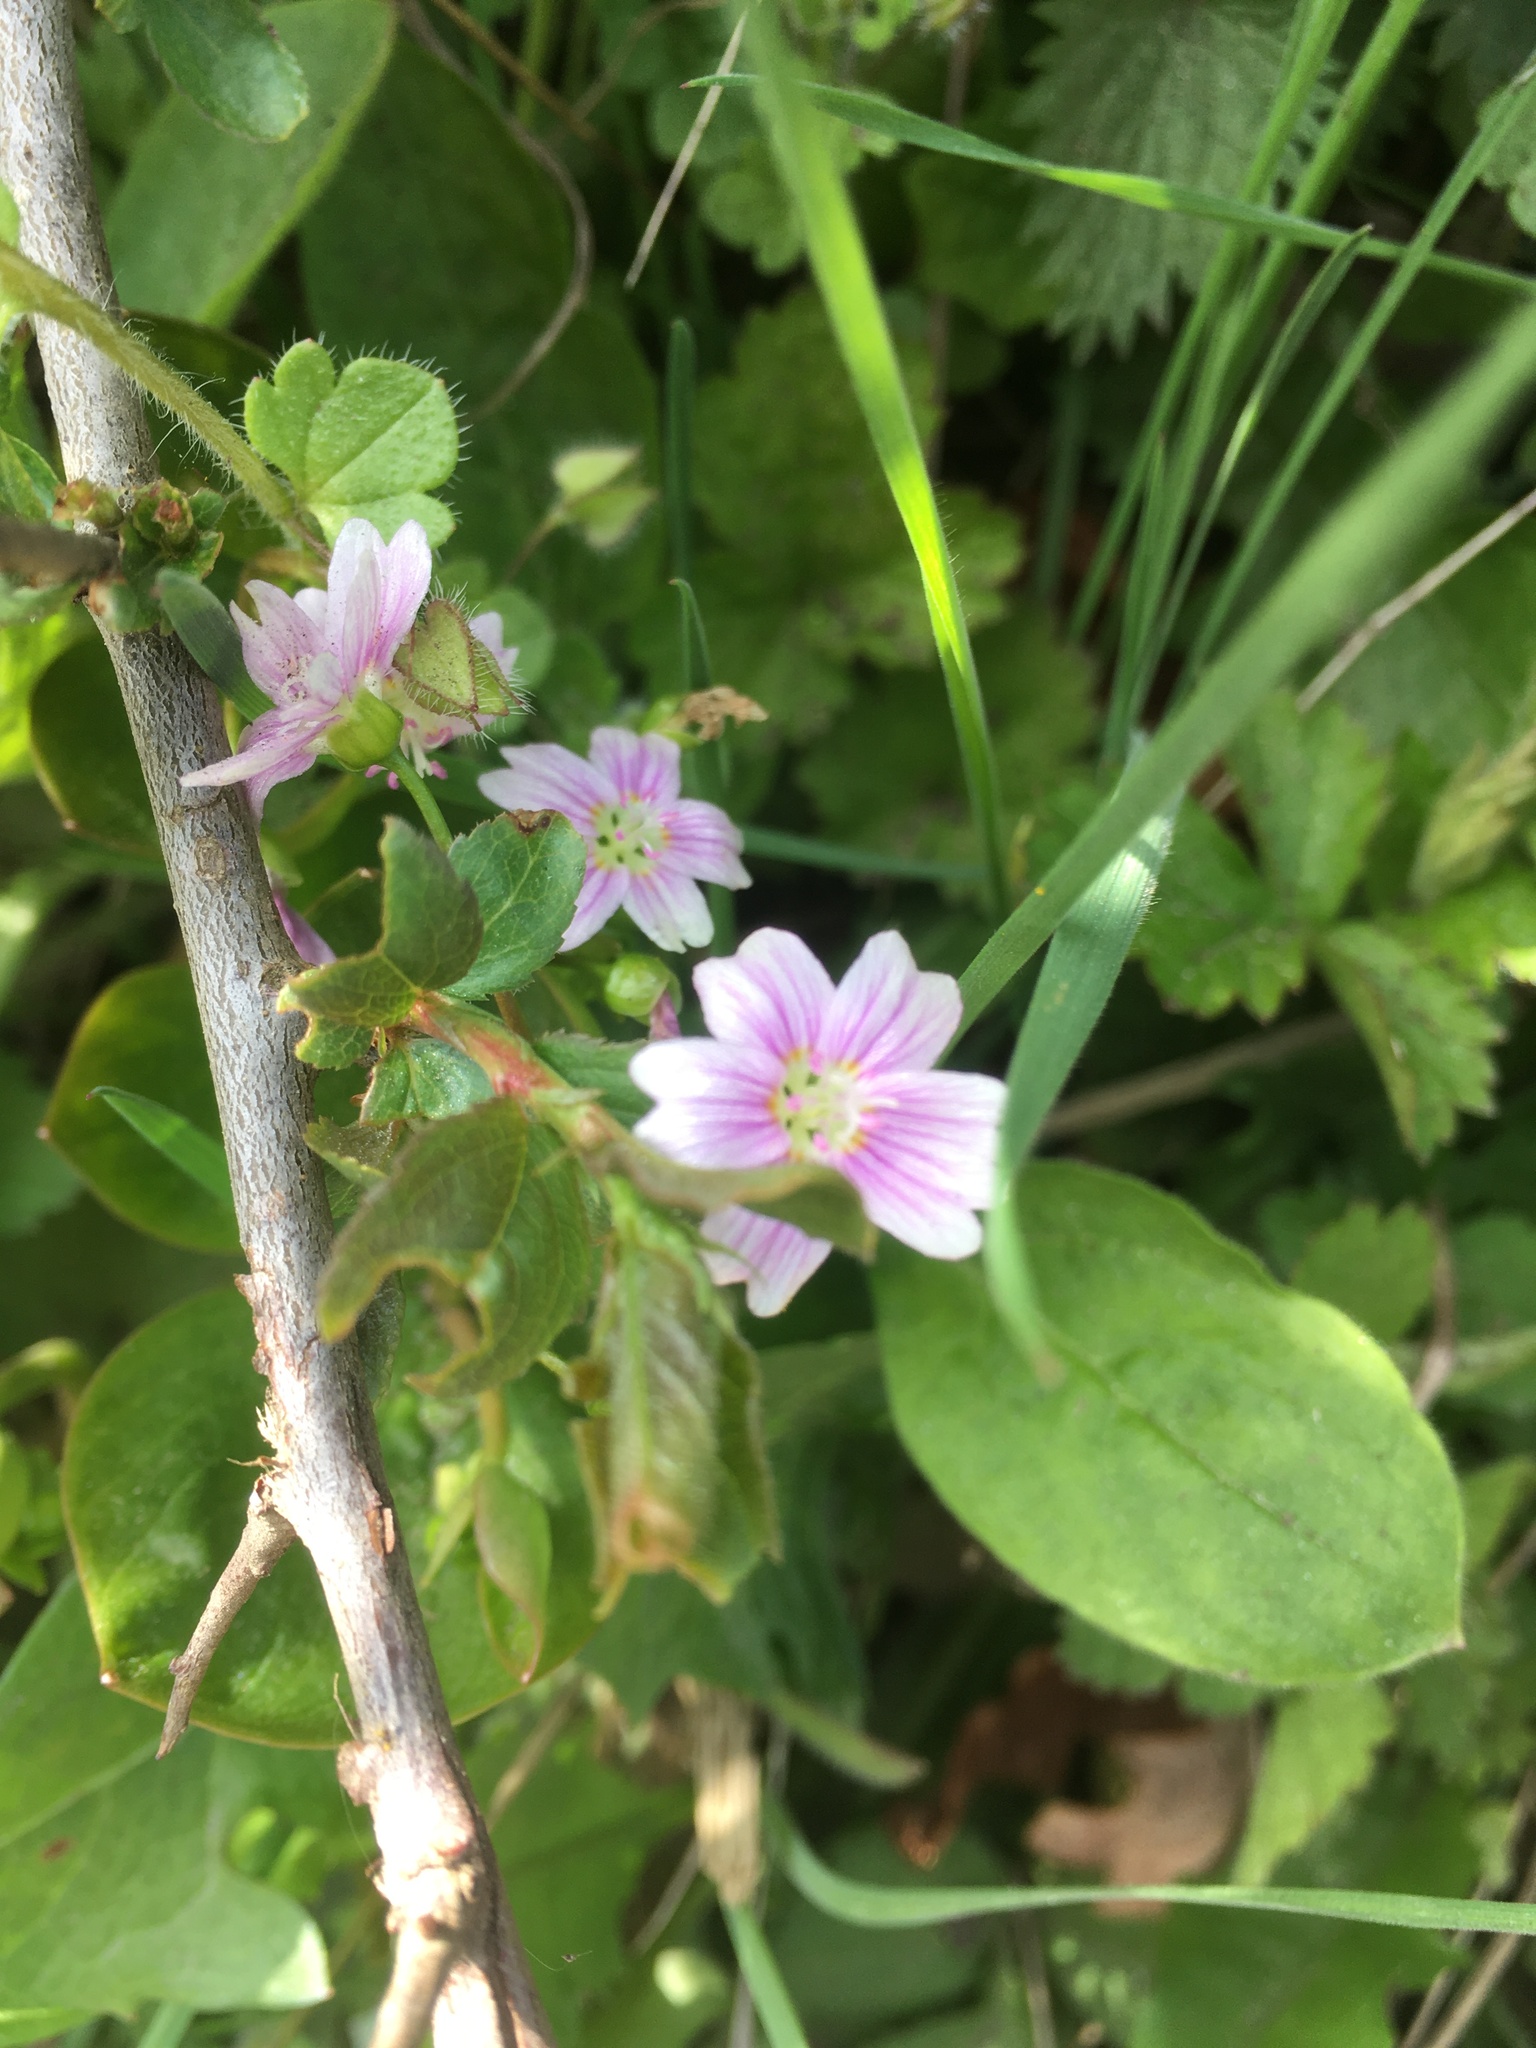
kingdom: Plantae
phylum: Tracheophyta
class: Magnoliopsida
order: Caryophyllales
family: Montiaceae
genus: Claytonia
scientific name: Claytonia sibirica
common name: Pink purslane
